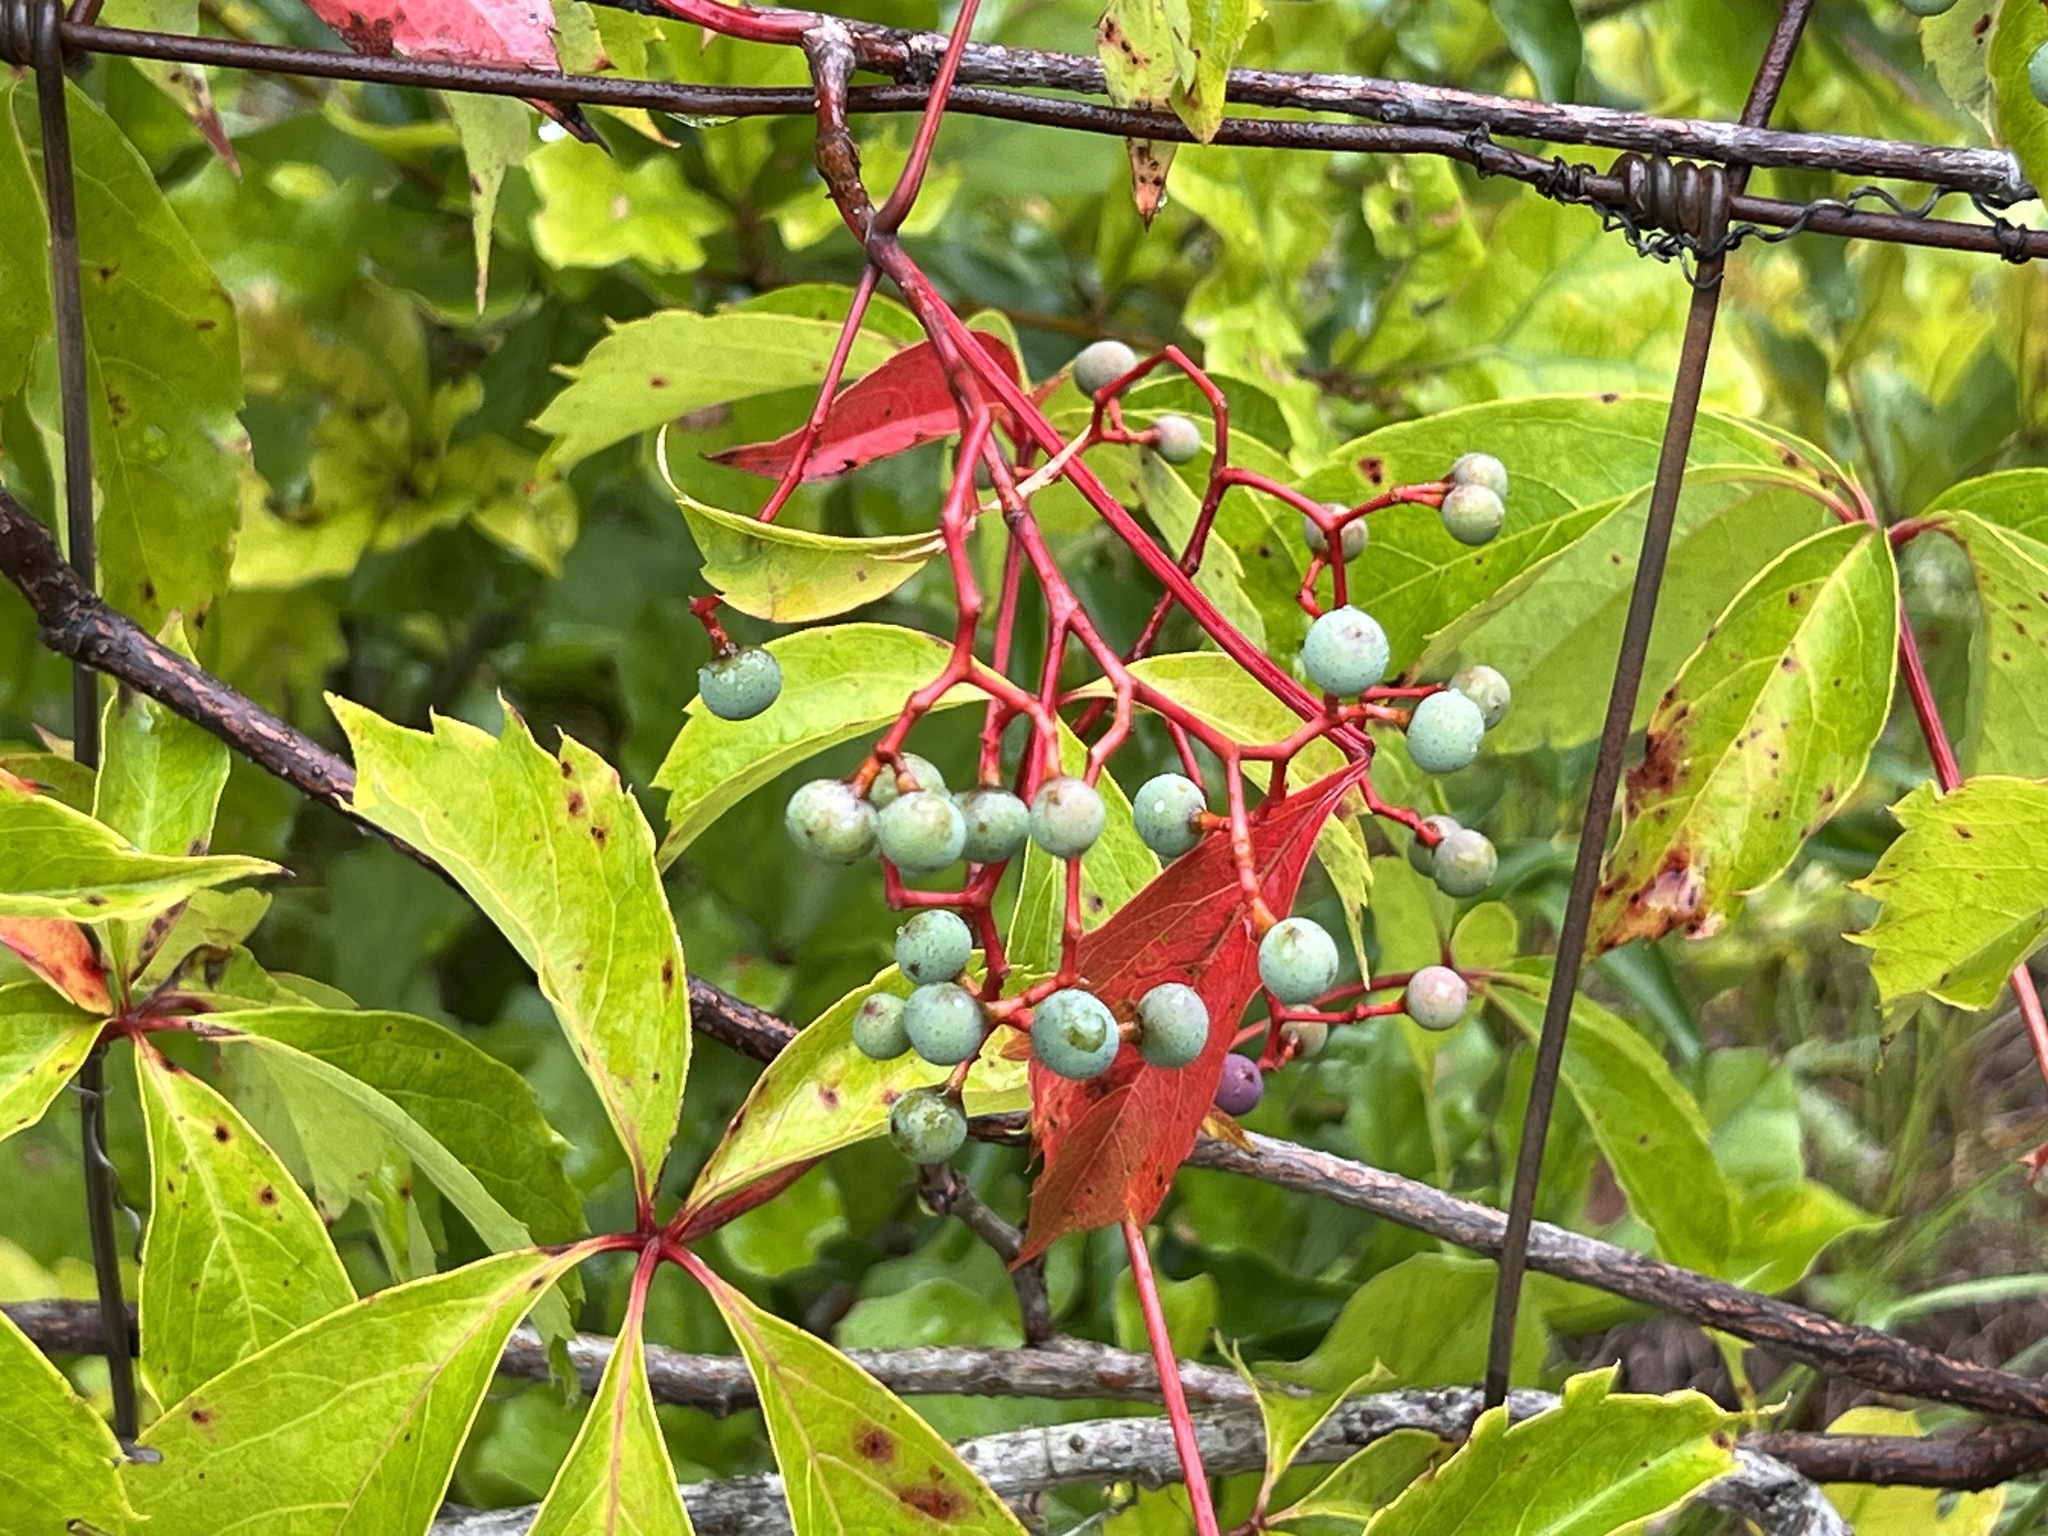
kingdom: Plantae
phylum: Tracheophyta
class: Magnoliopsida
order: Vitales
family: Vitaceae
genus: Parthenocissus
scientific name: Parthenocissus quinquefolia
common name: Virginia-creeper
